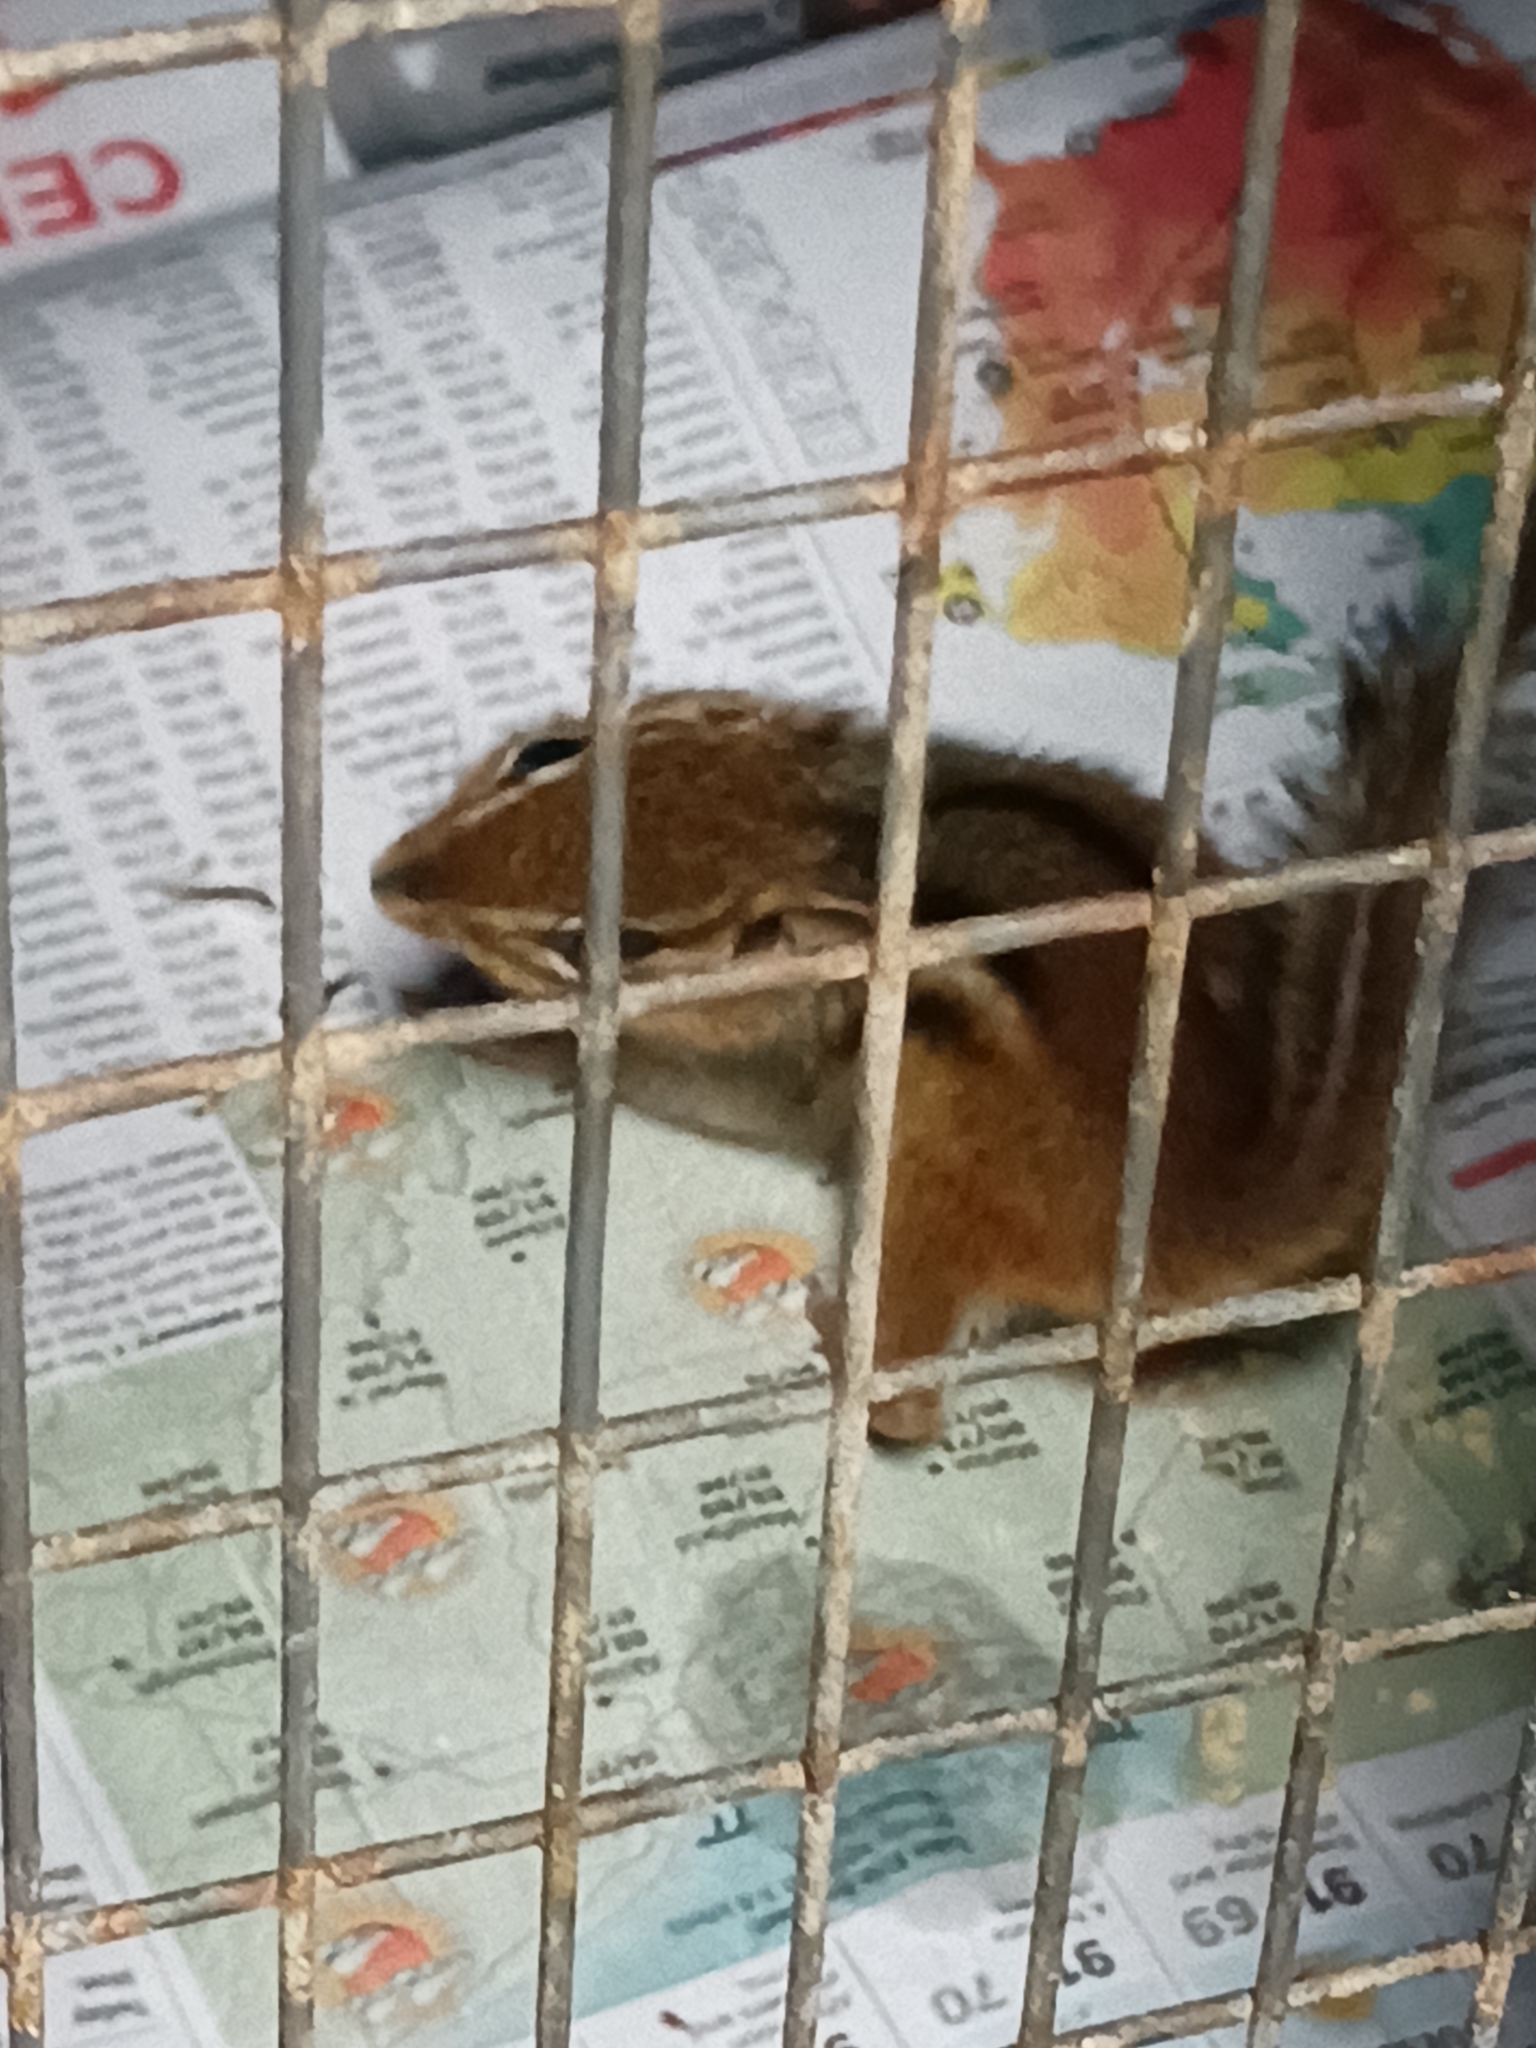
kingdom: Animalia
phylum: Chordata
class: Mammalia
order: Rodentia
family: Sciuridae
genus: Tamias
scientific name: Tamias striatus
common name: Eastern chipmunk
